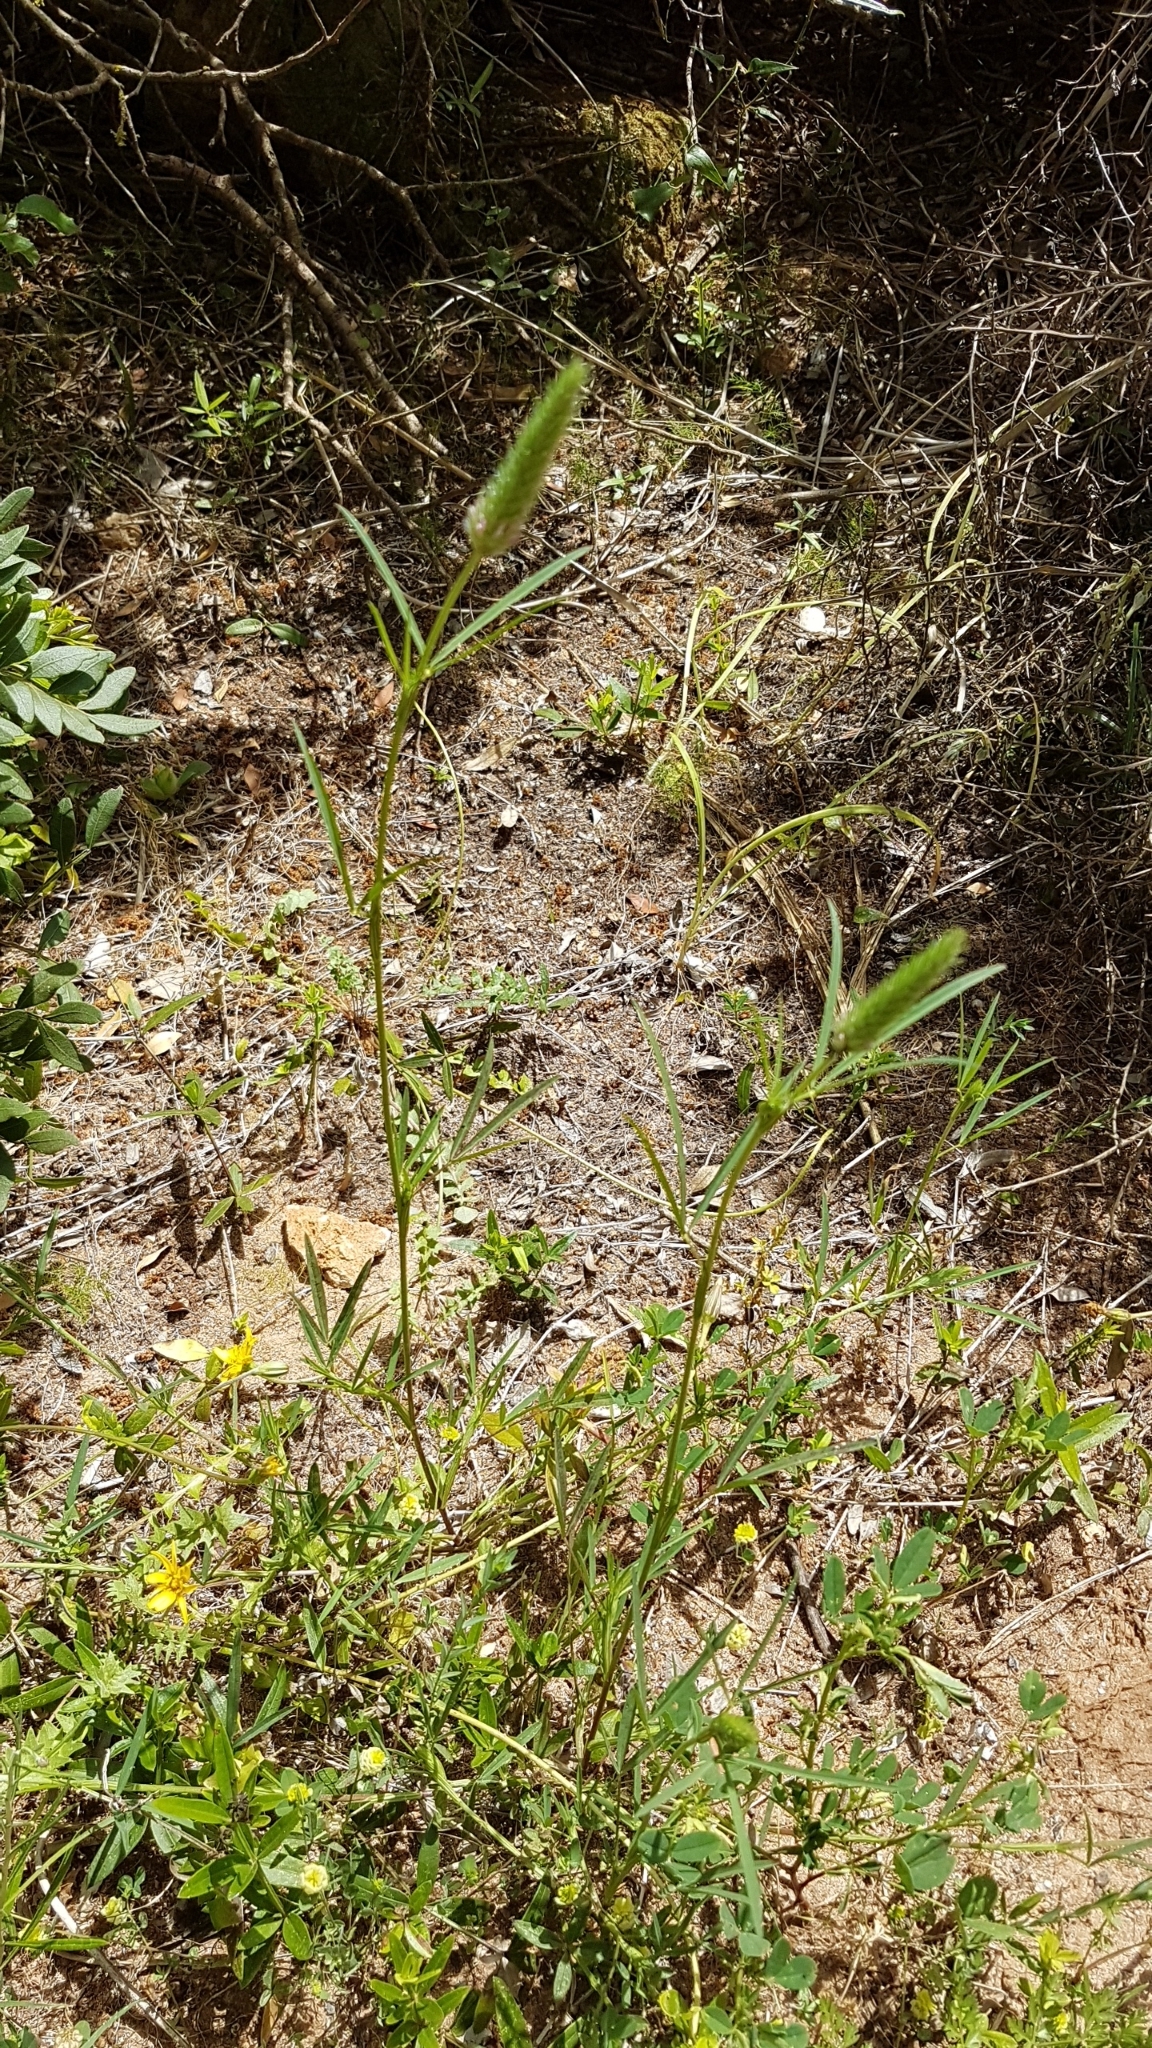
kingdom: Plantae
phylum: Tracheophyta
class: Magnoliopsida
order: Fabales
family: Fabaceae
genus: Trifolium
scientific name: Trifolium angustifolium
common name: Narrow clover
